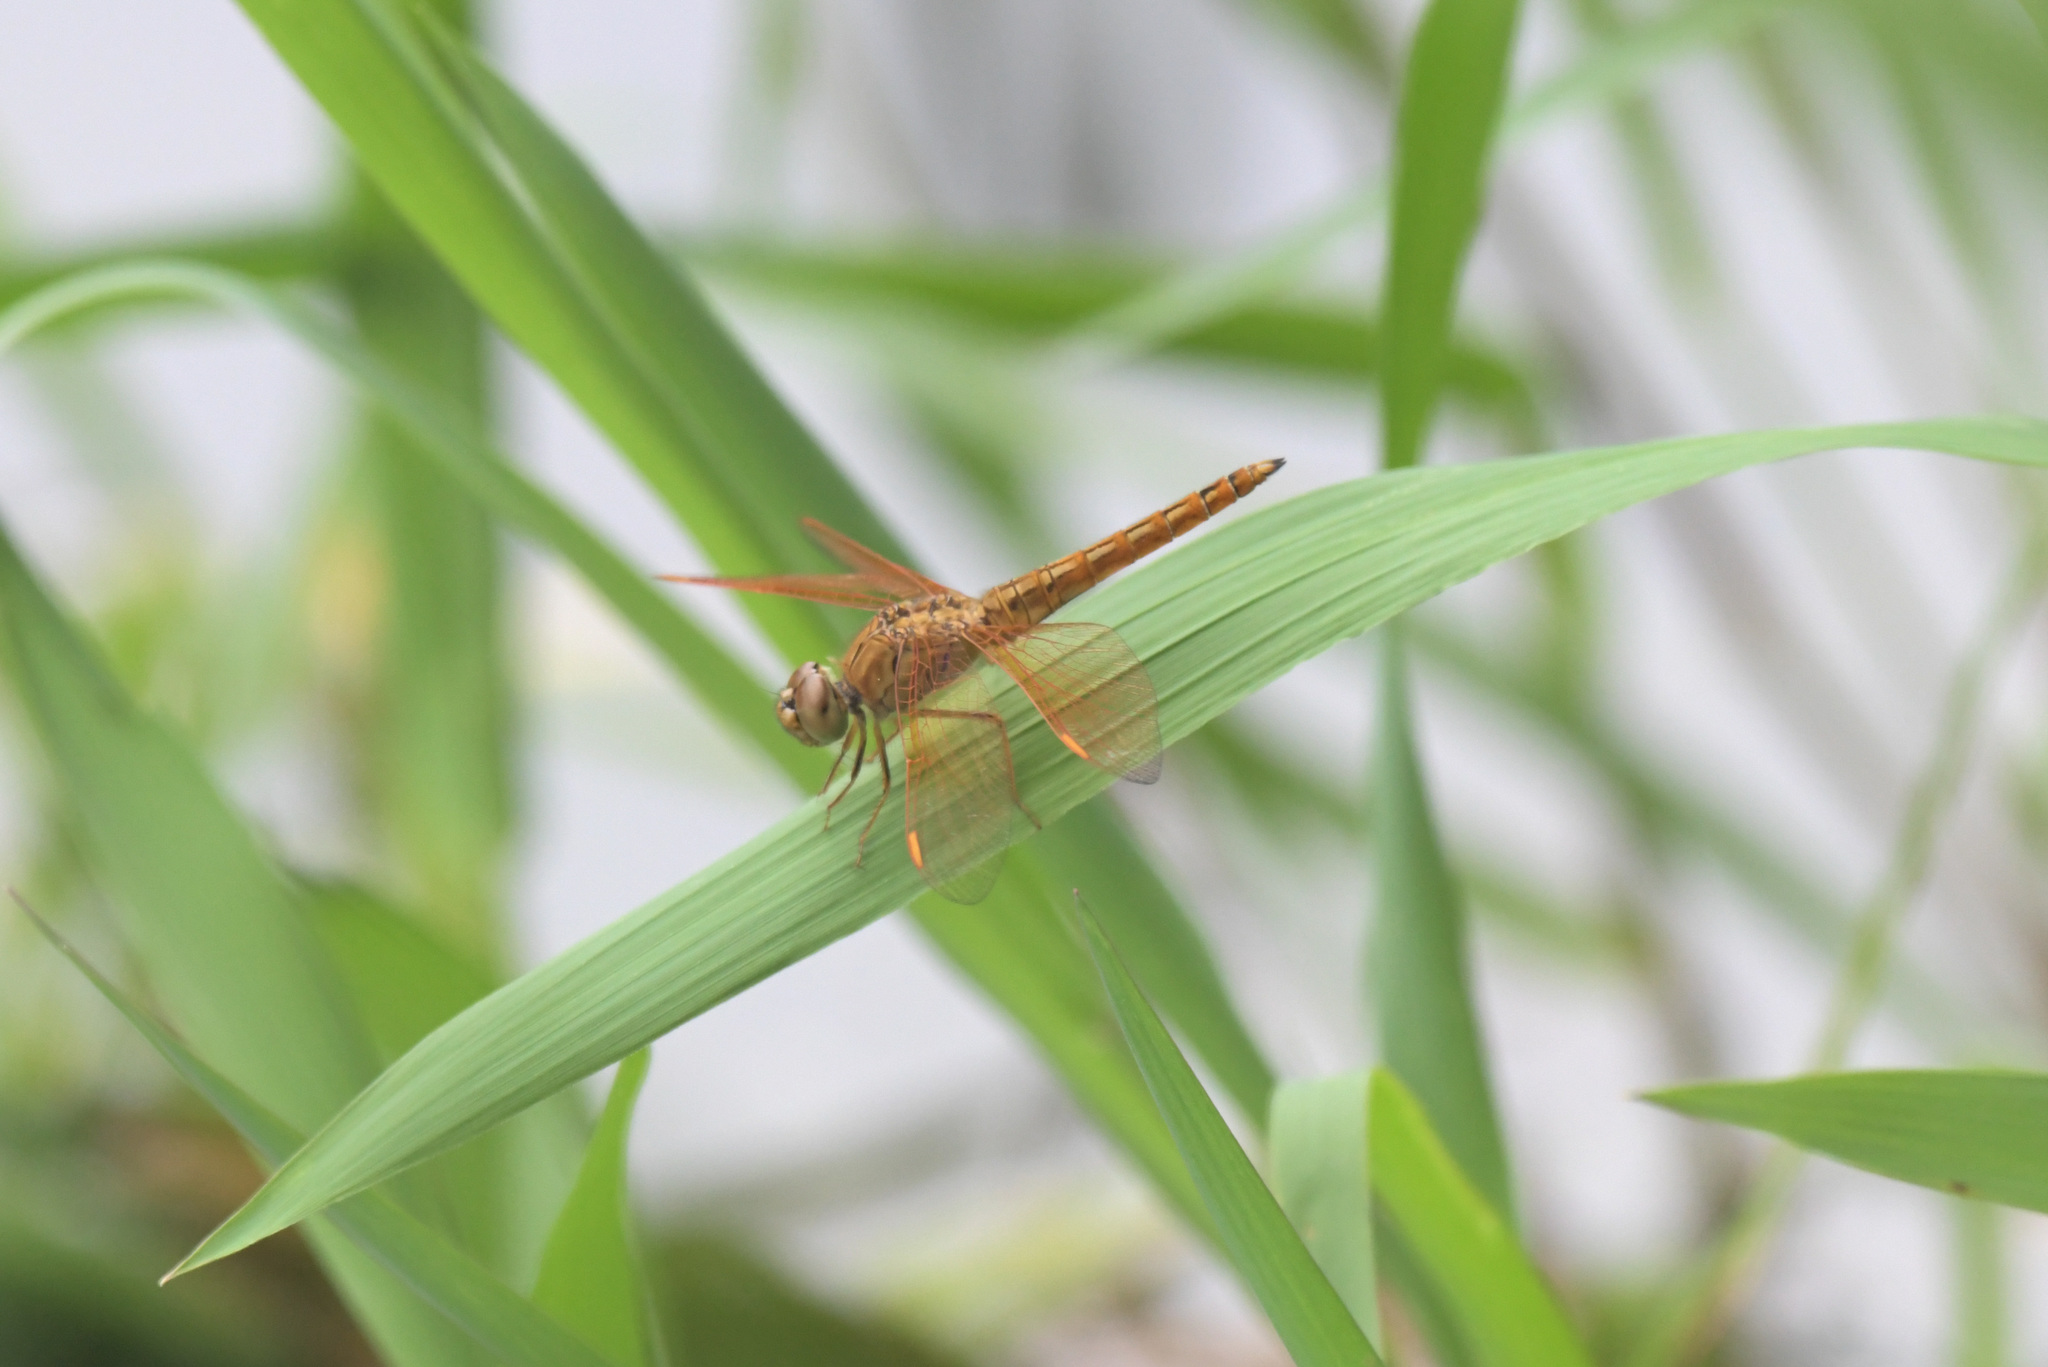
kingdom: Animalia
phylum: Arthropoda
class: Insecta
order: Odonata
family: Libellulidae
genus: Brachythemis
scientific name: Brachythemis contaminata
